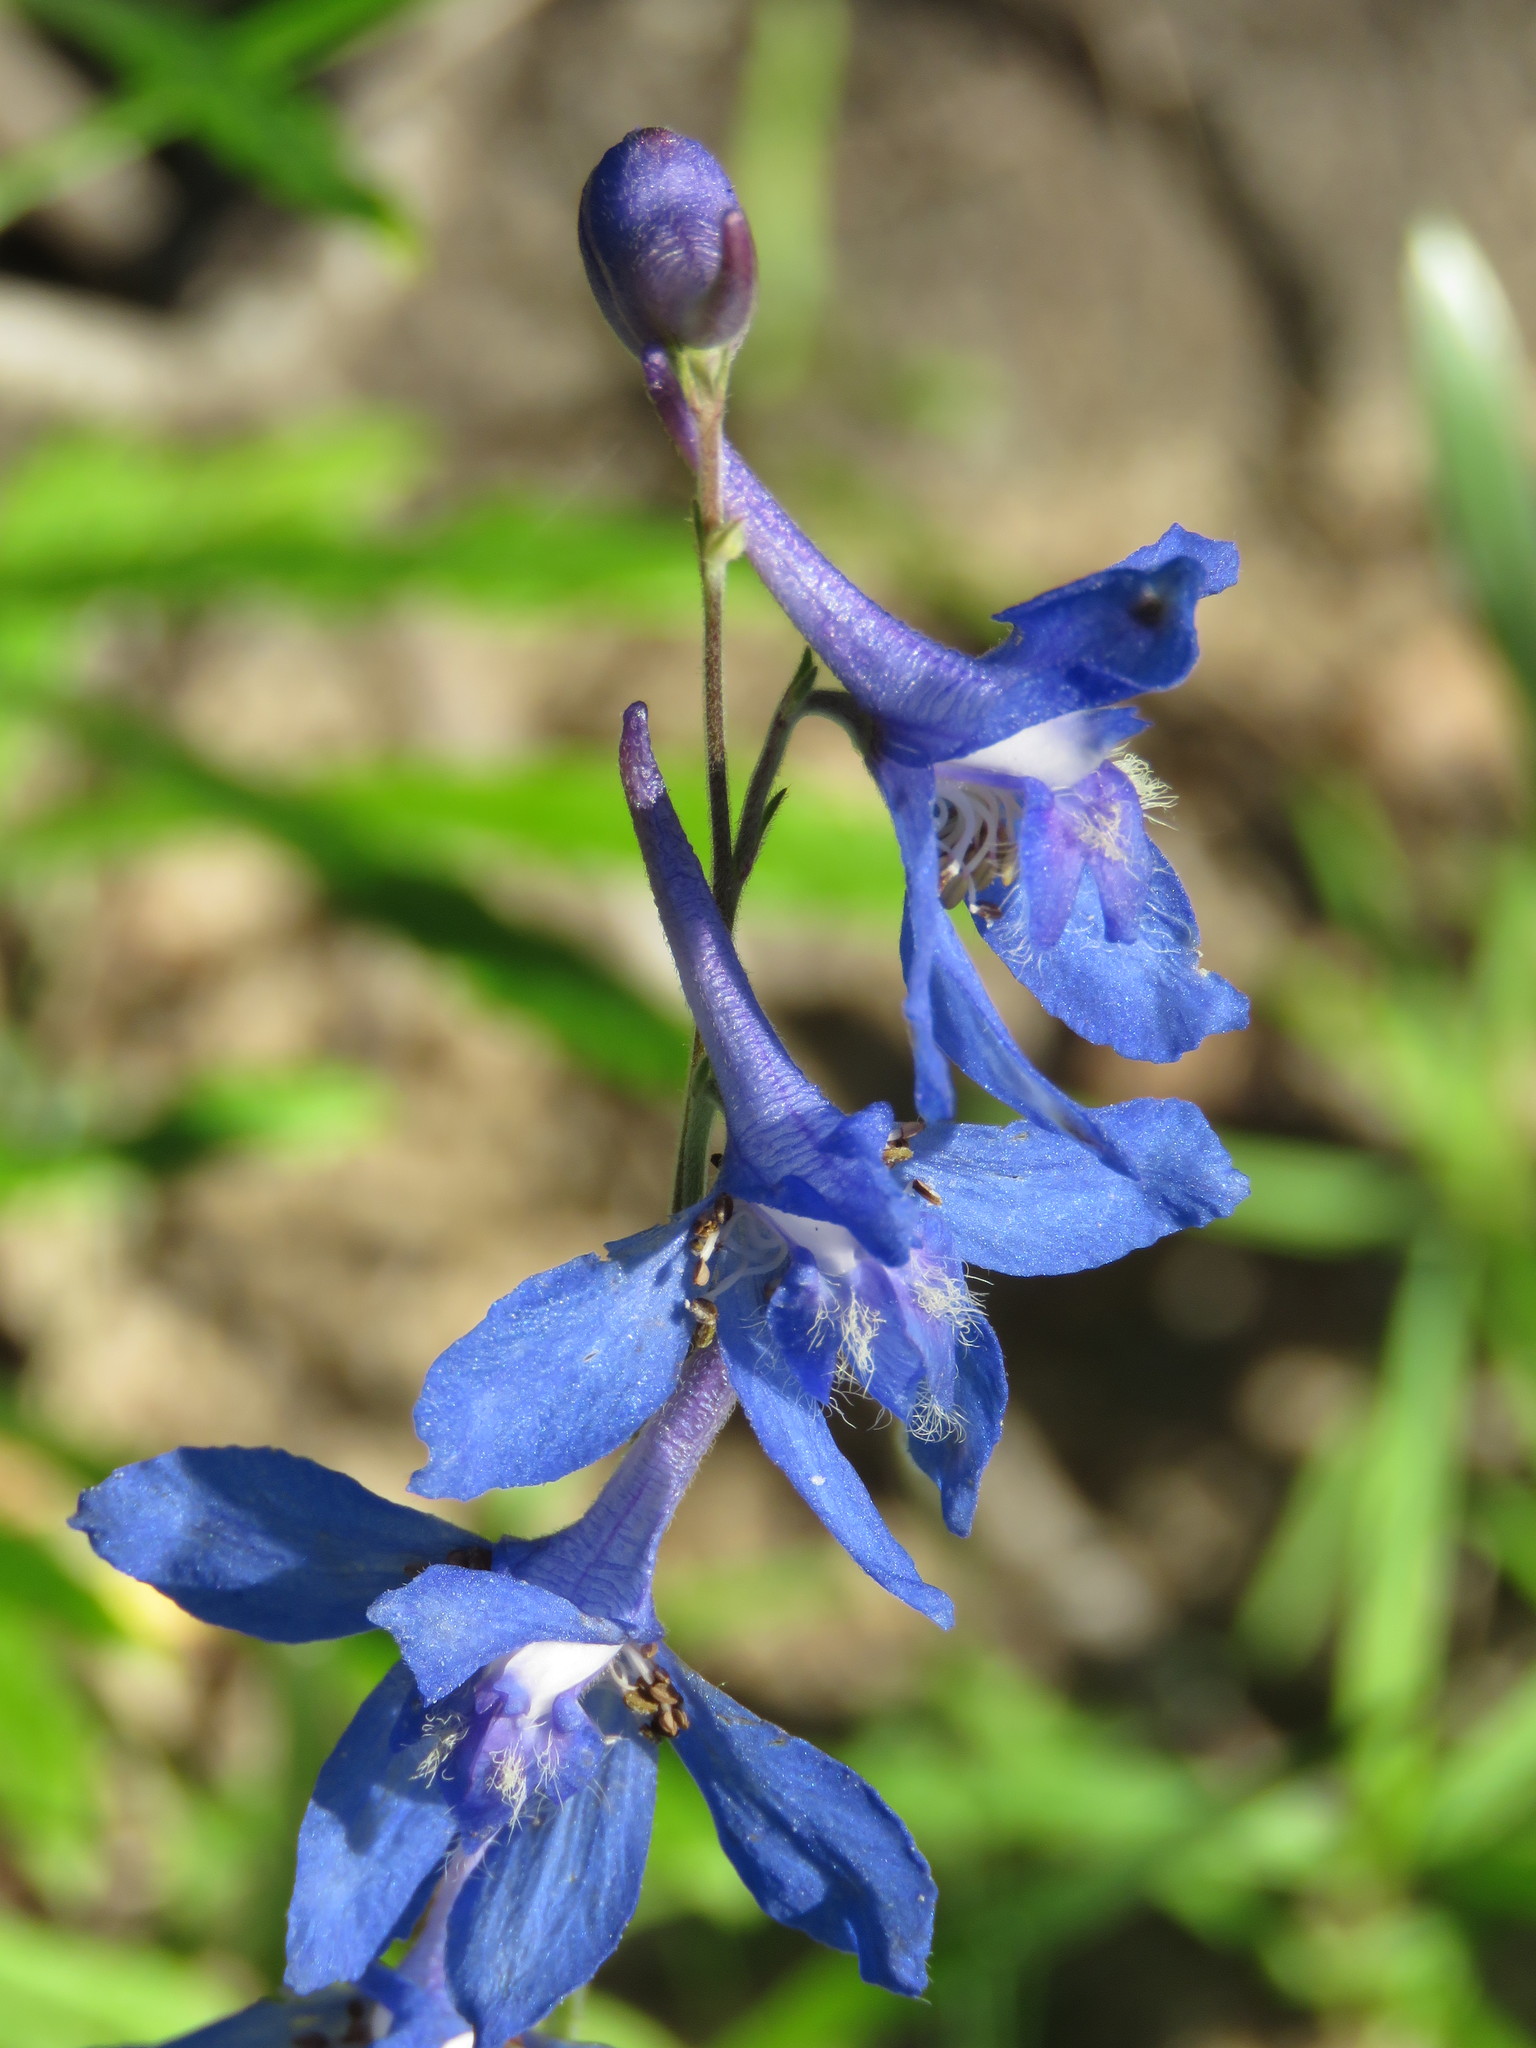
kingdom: Plantae
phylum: Tracheophyta
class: Magnoliopsida
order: Ranunculales
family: Ranunculaceae
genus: Delphinium
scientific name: Delphinium carolinianum
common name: Carolina larkspur
